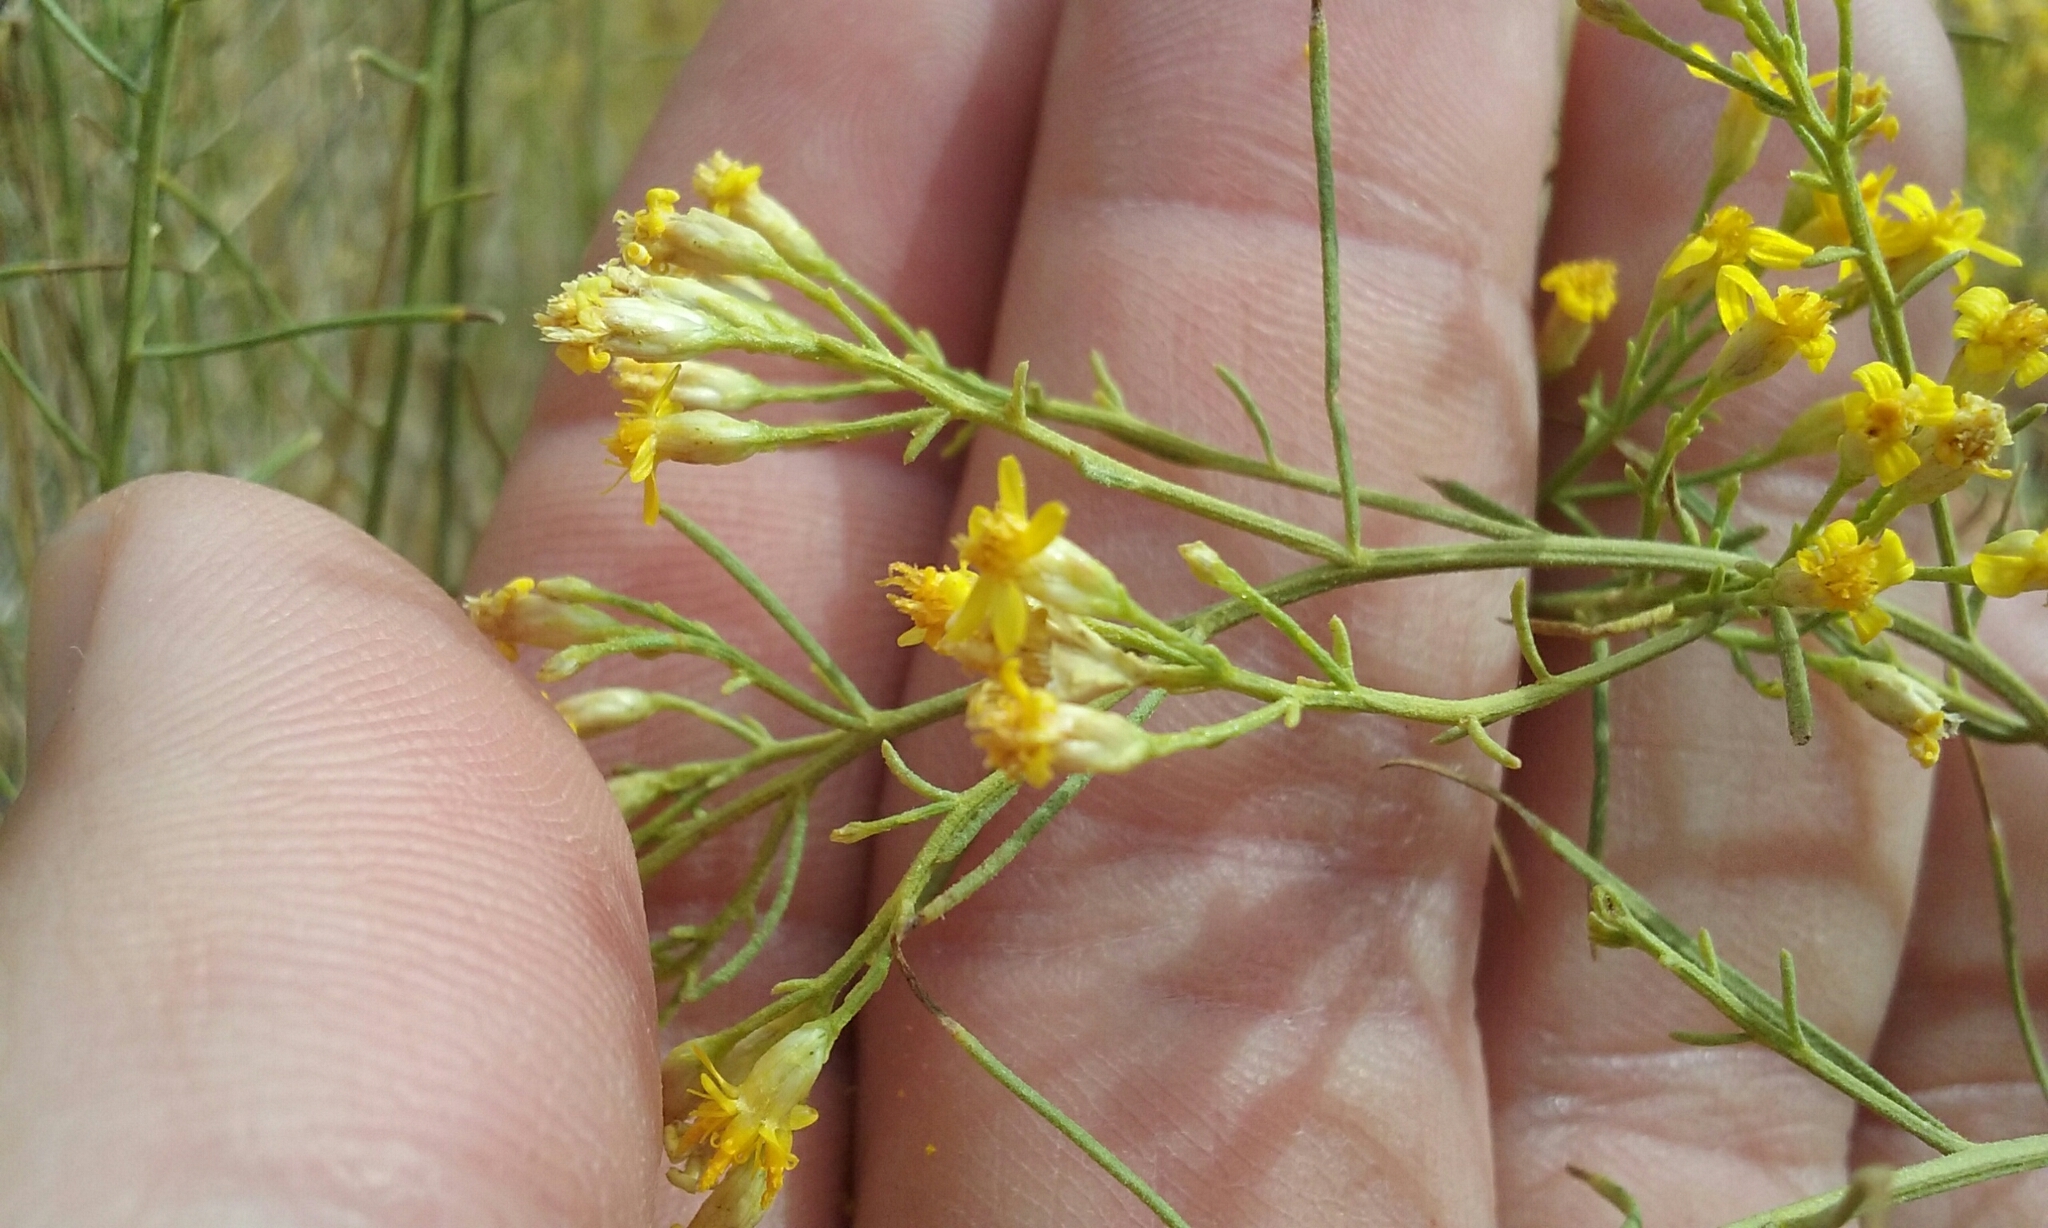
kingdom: Plantae
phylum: Tracheophyta
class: Magnoliopsida
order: Asterales
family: Asteraceae
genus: Gutierrezia
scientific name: Gutierrezia sarothrae
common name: Broom snakeweed
